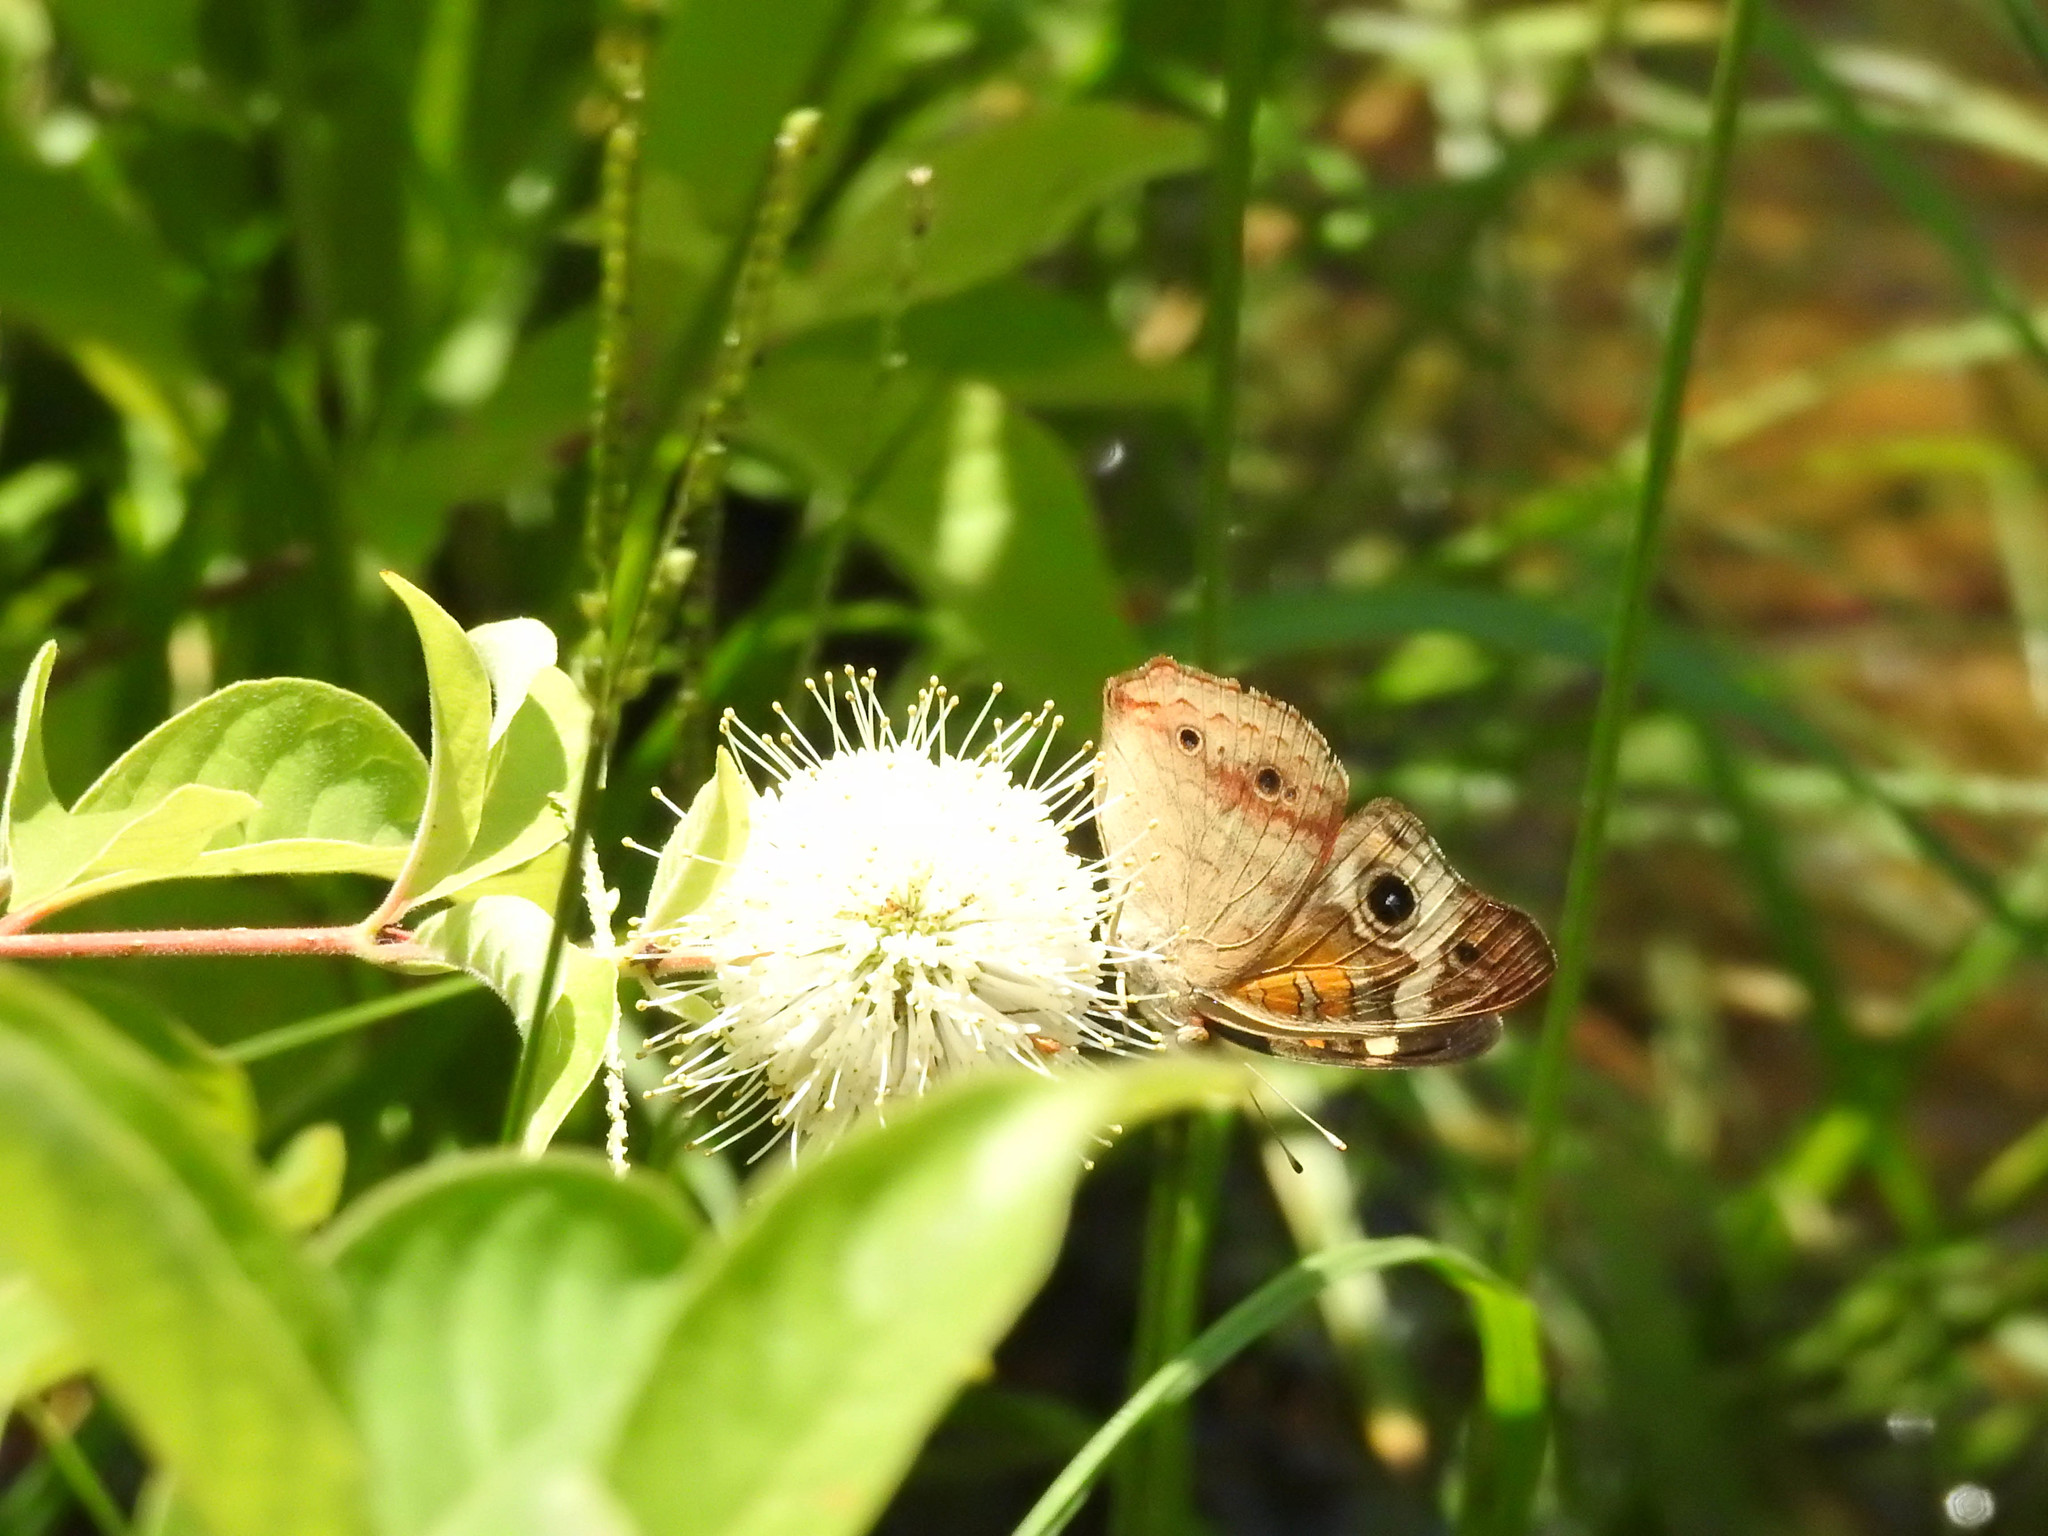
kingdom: Animalia
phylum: Arthropoda
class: Insecta
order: Lepidoptera
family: Nymphalidae
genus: Junonia
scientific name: Junonia coenia
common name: Common buckeye
